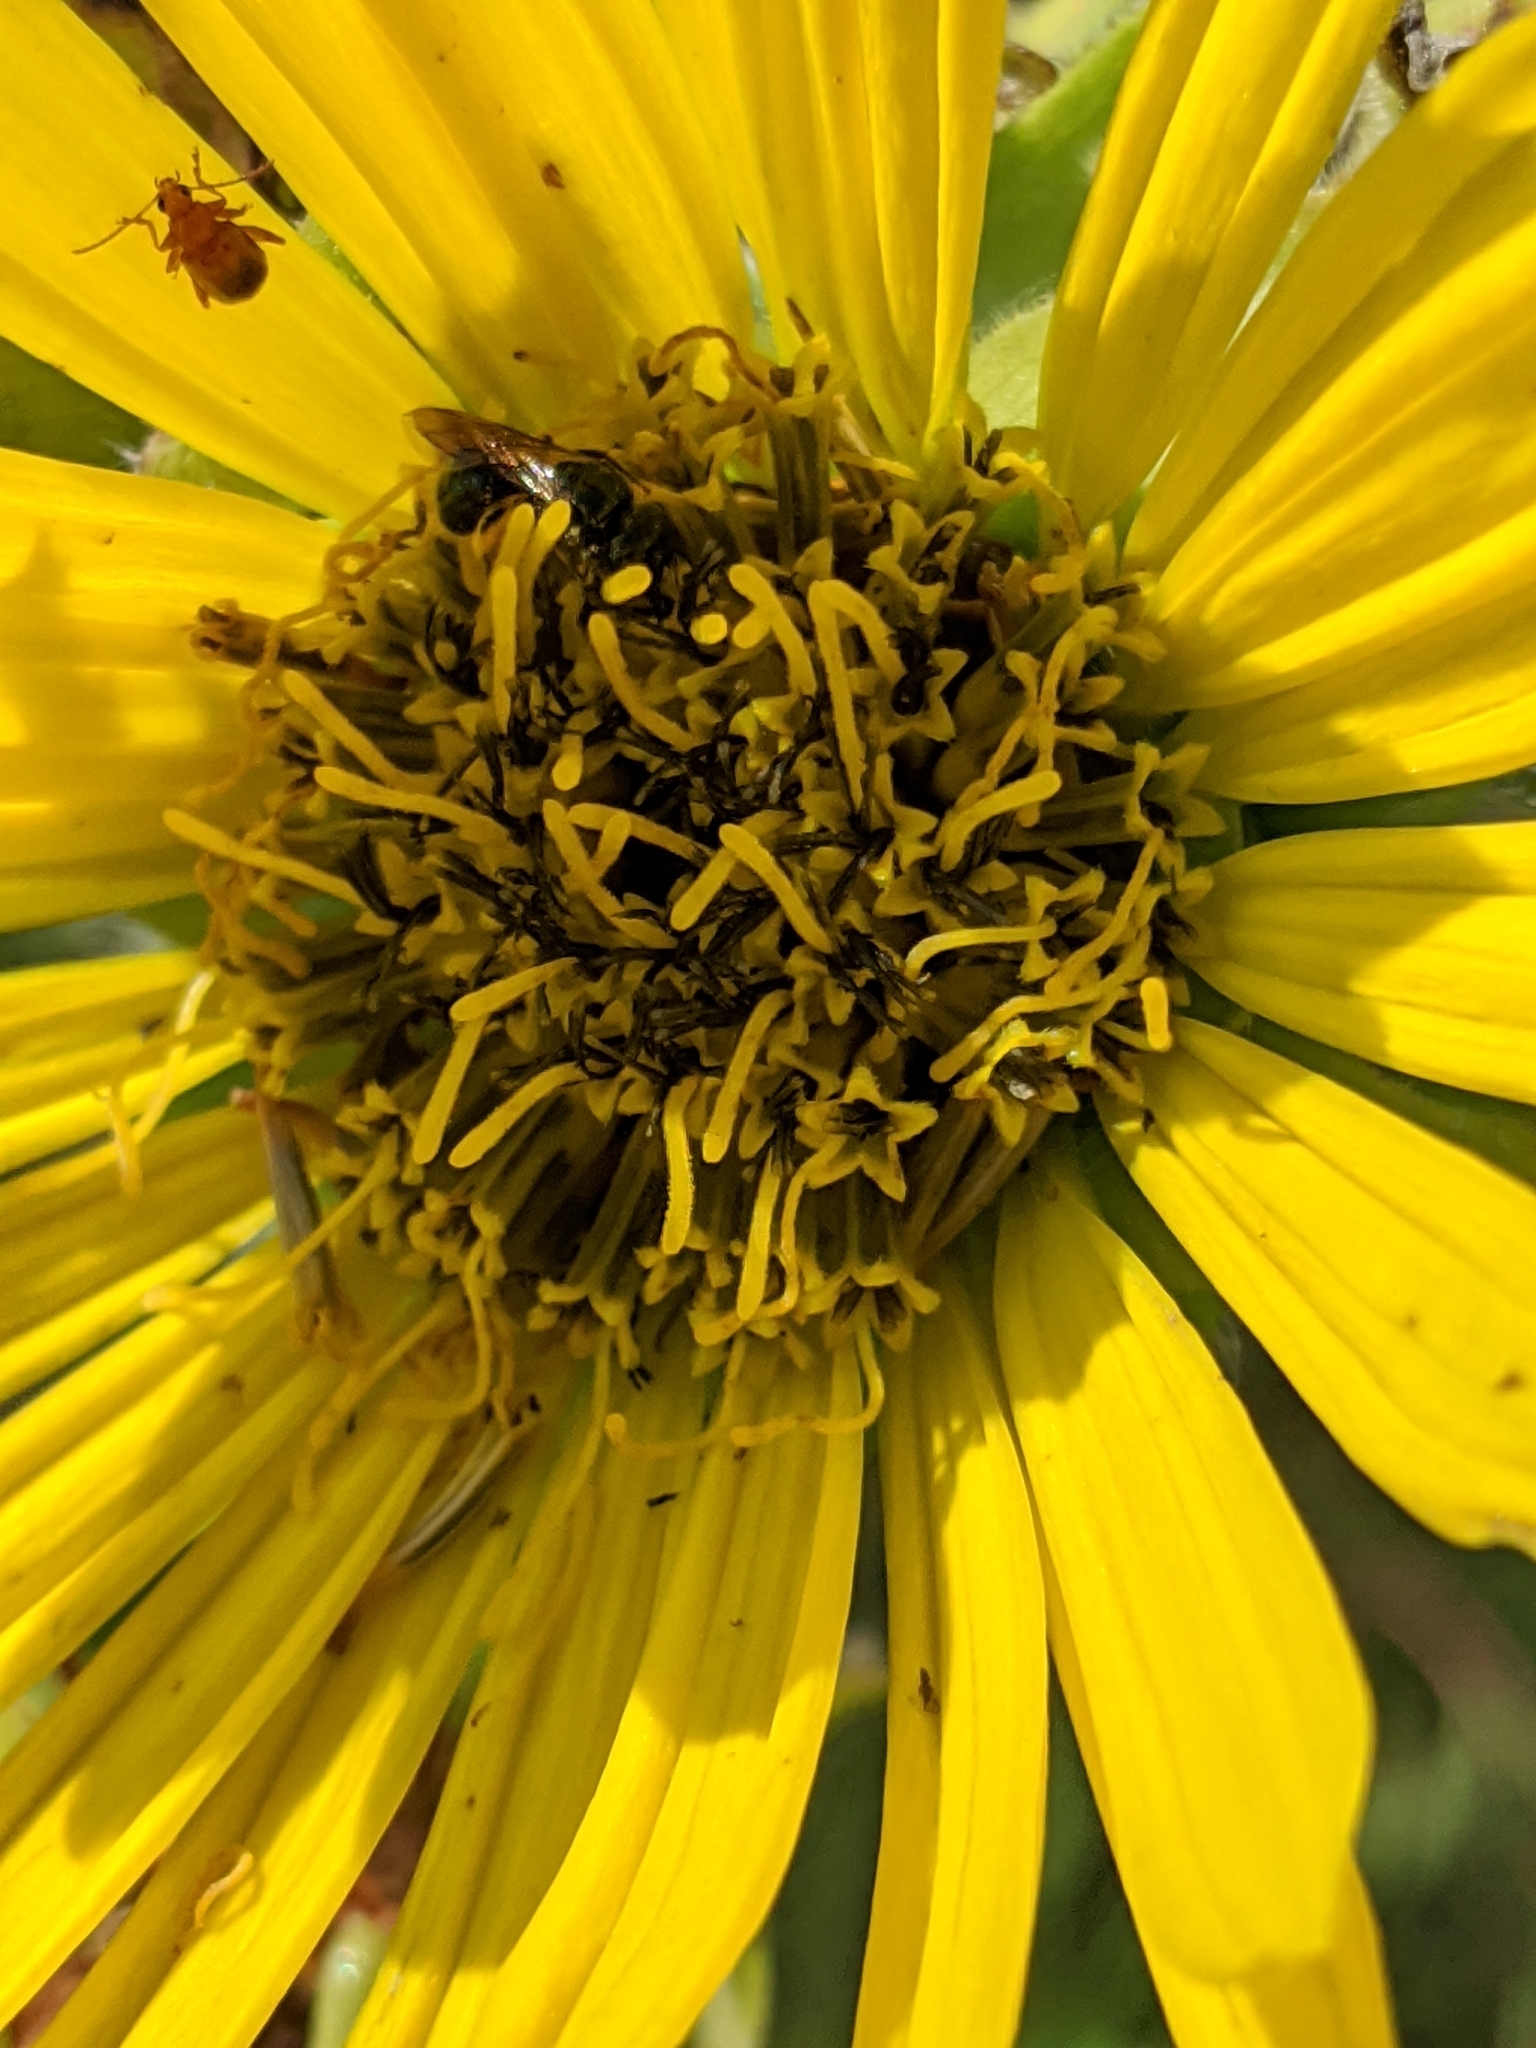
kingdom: Plantae
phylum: Tracheophyta
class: Magnoliopsida
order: Asterales
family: Asteraceae
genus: Silphium
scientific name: Silphium laciniatum
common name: Polarplant
